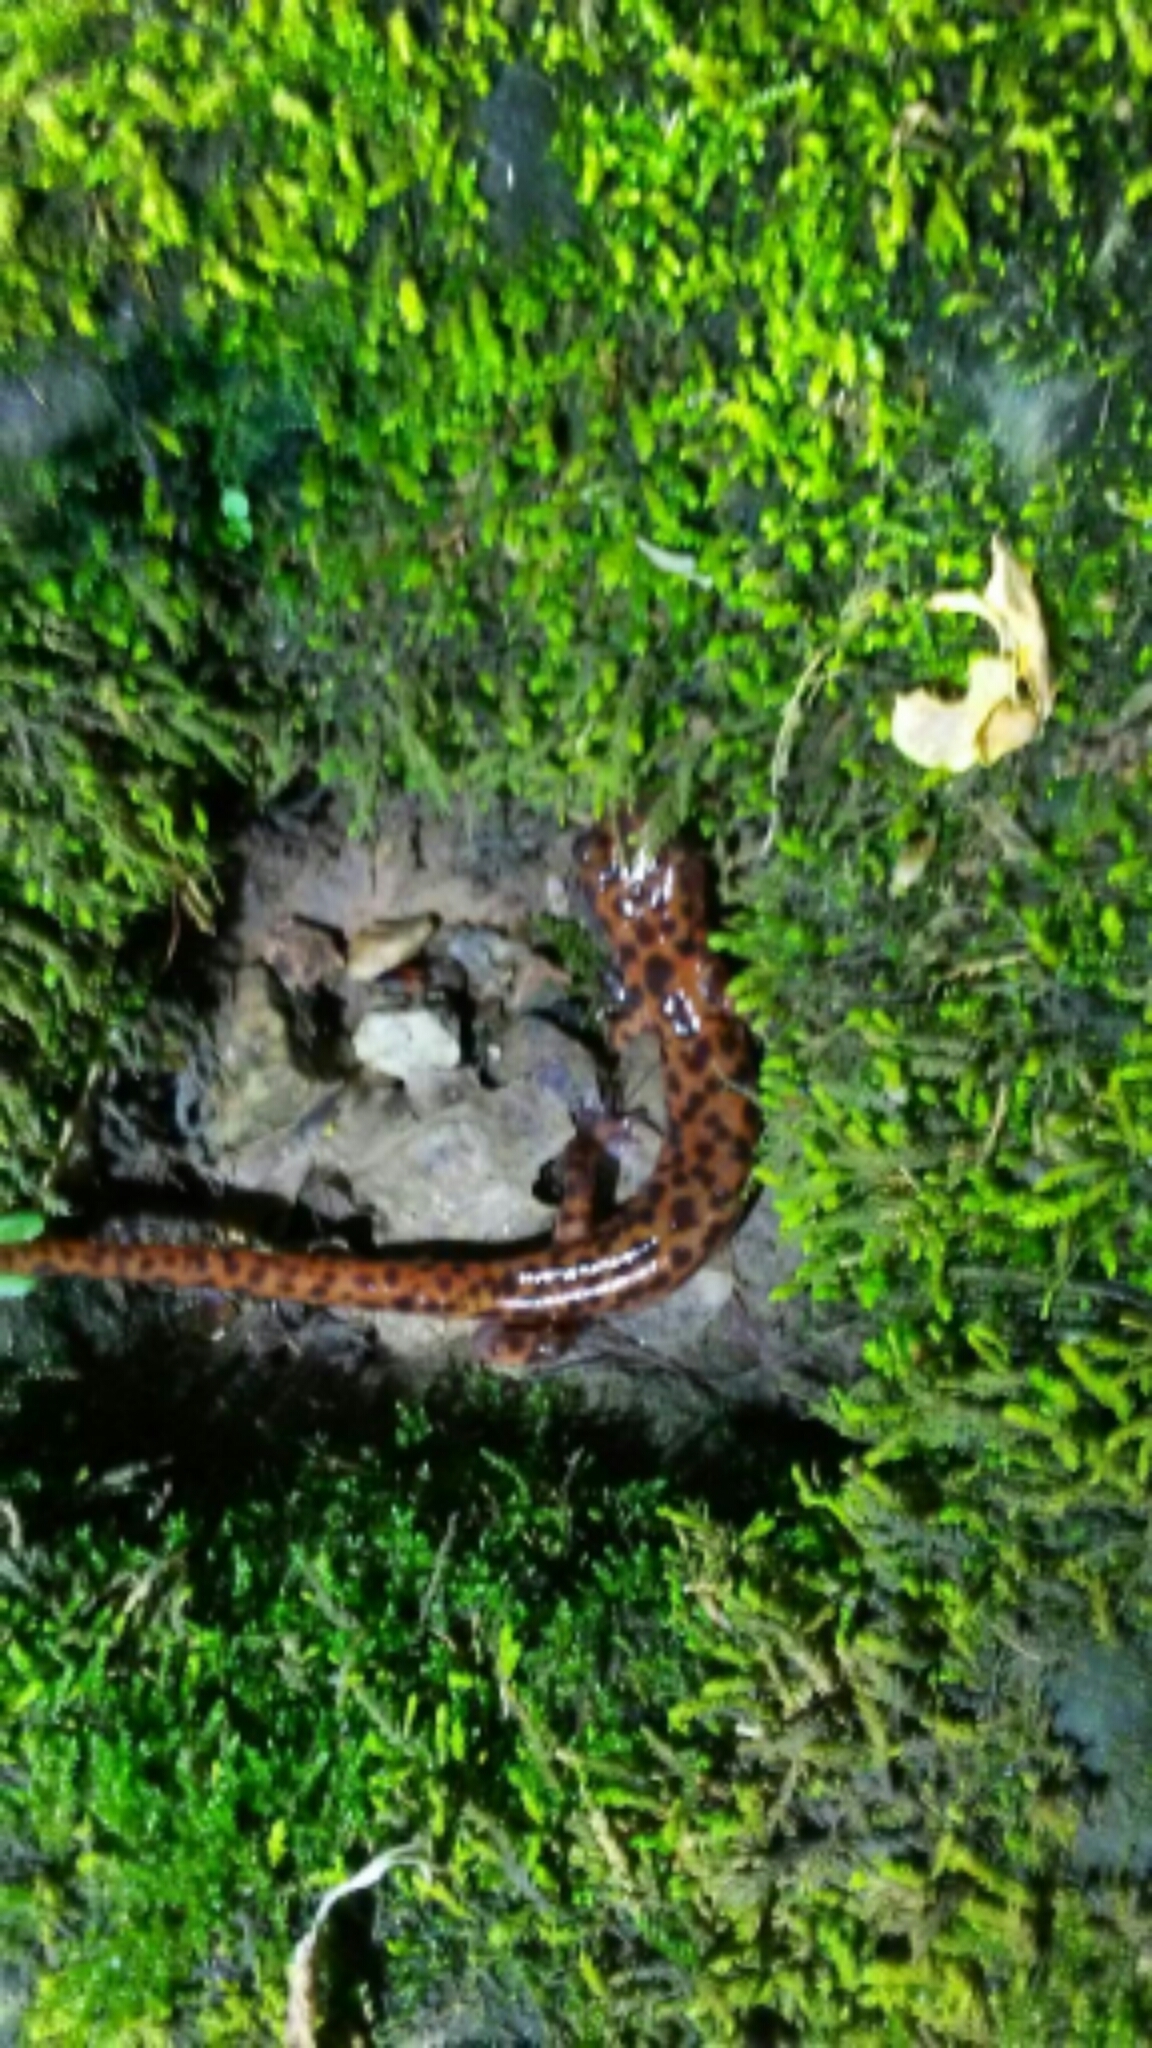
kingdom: Animalia
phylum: Chordata
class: Amphibia
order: Caudata
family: Plethodontidae
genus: Eurycea
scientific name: Eurycea lucifuga
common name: Cave salamander
